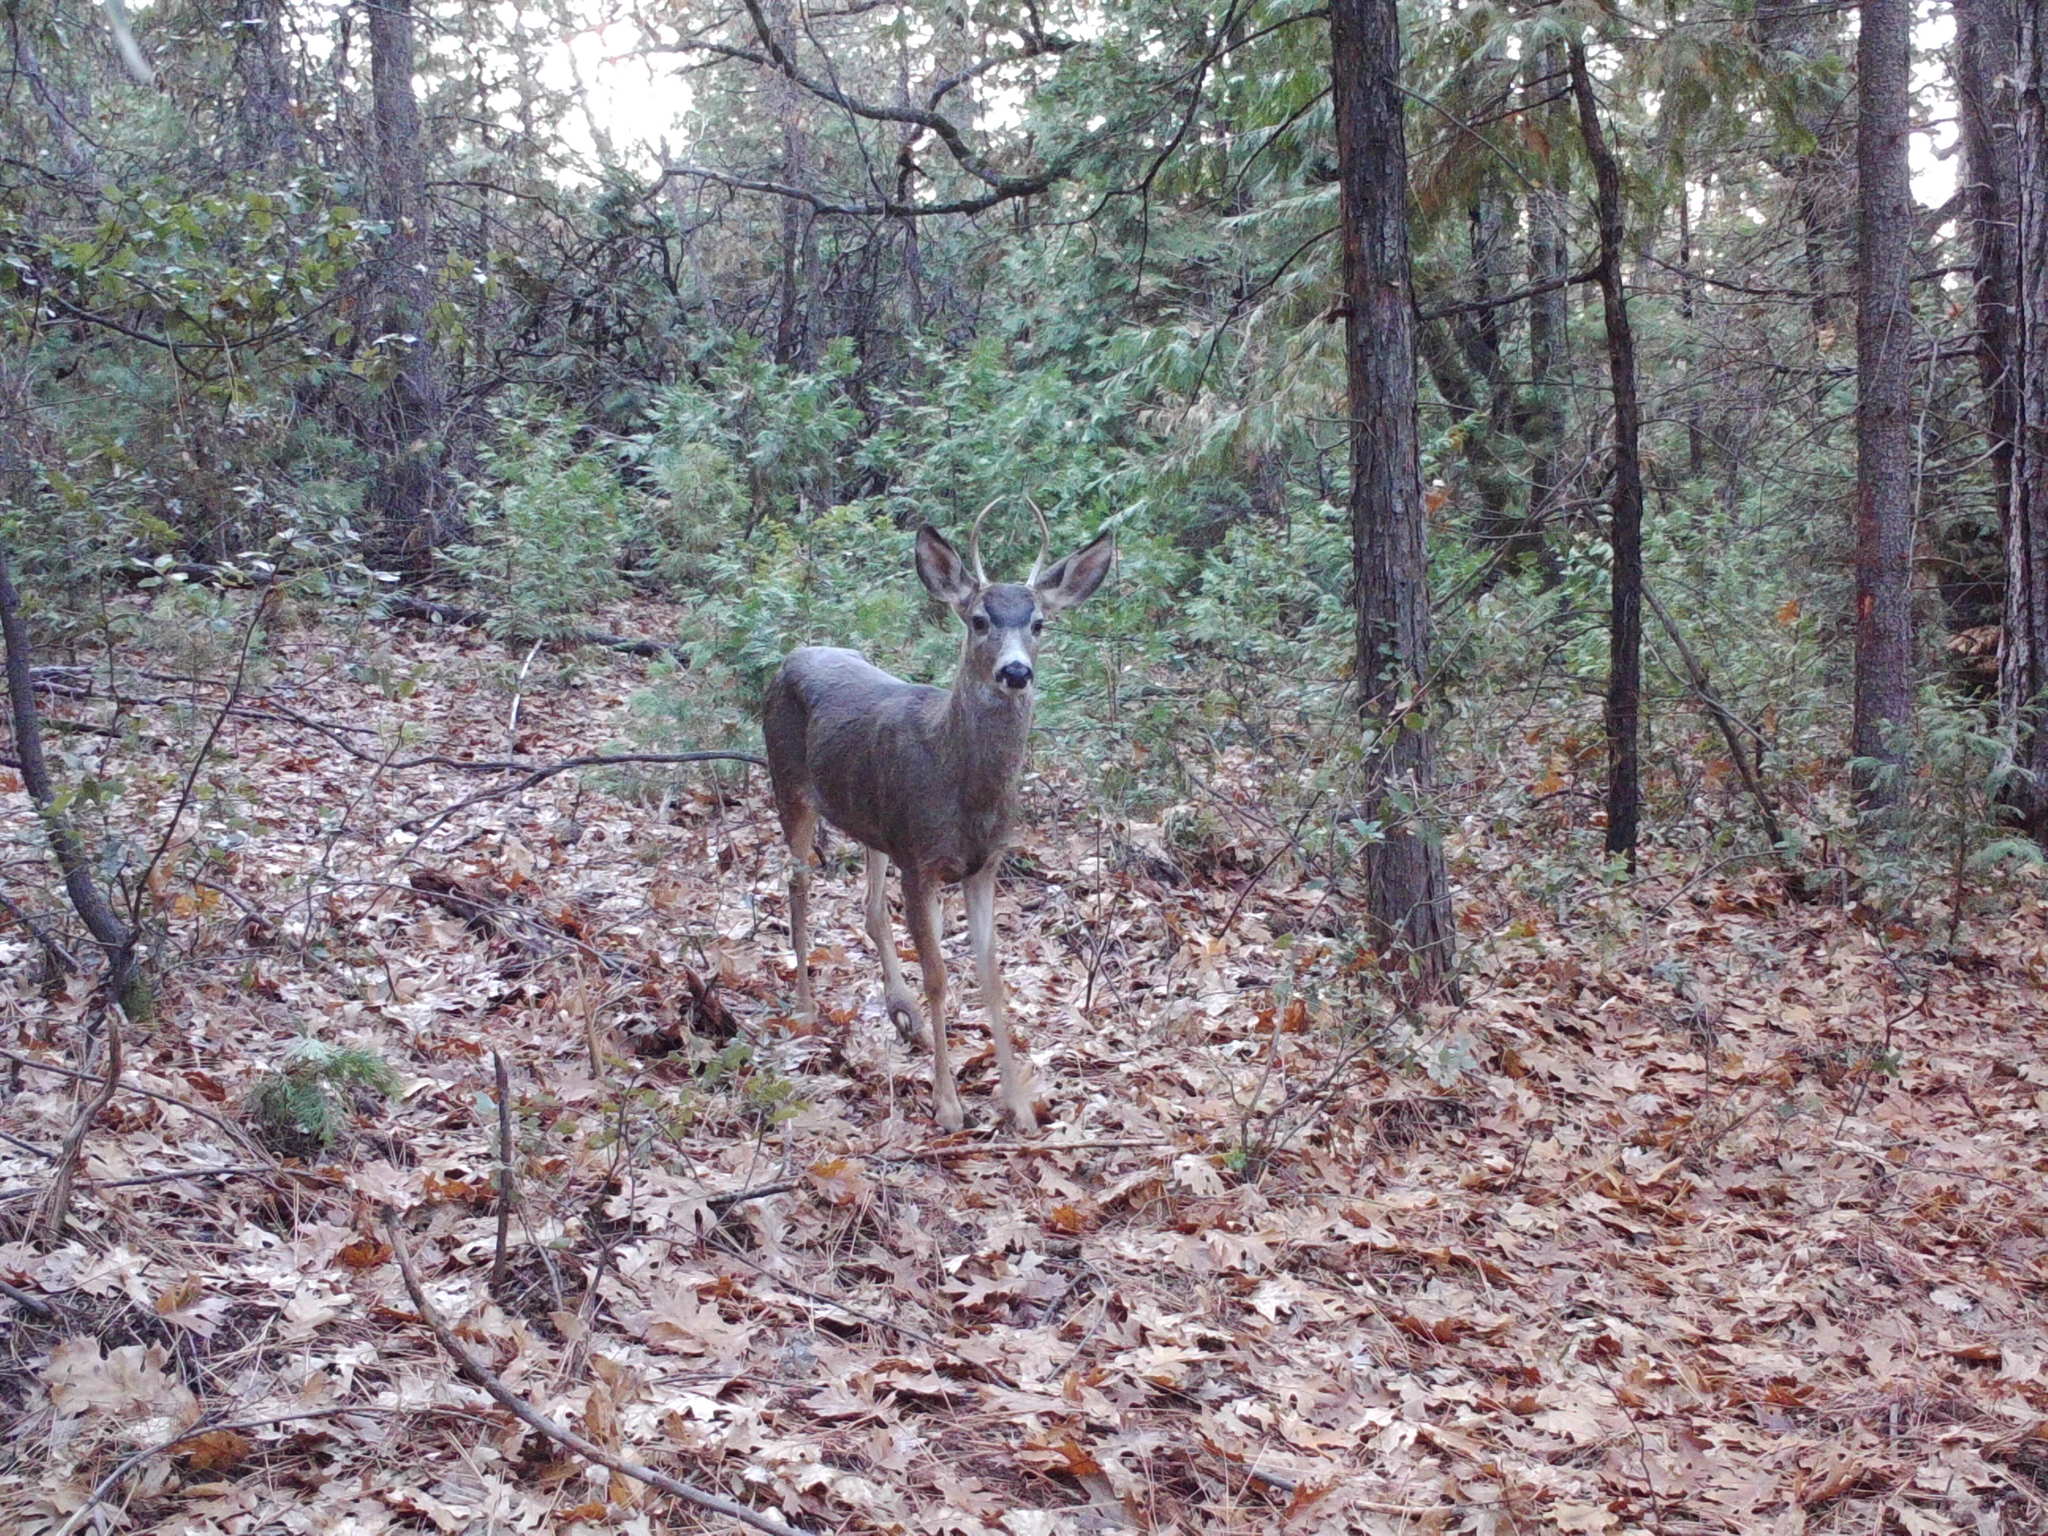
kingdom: Animalia
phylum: Chordata
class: Mammalia
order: Artiodactyla
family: Cervidae
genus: Odocoileus
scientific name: Odocoileus hemionus
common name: Mule deer
